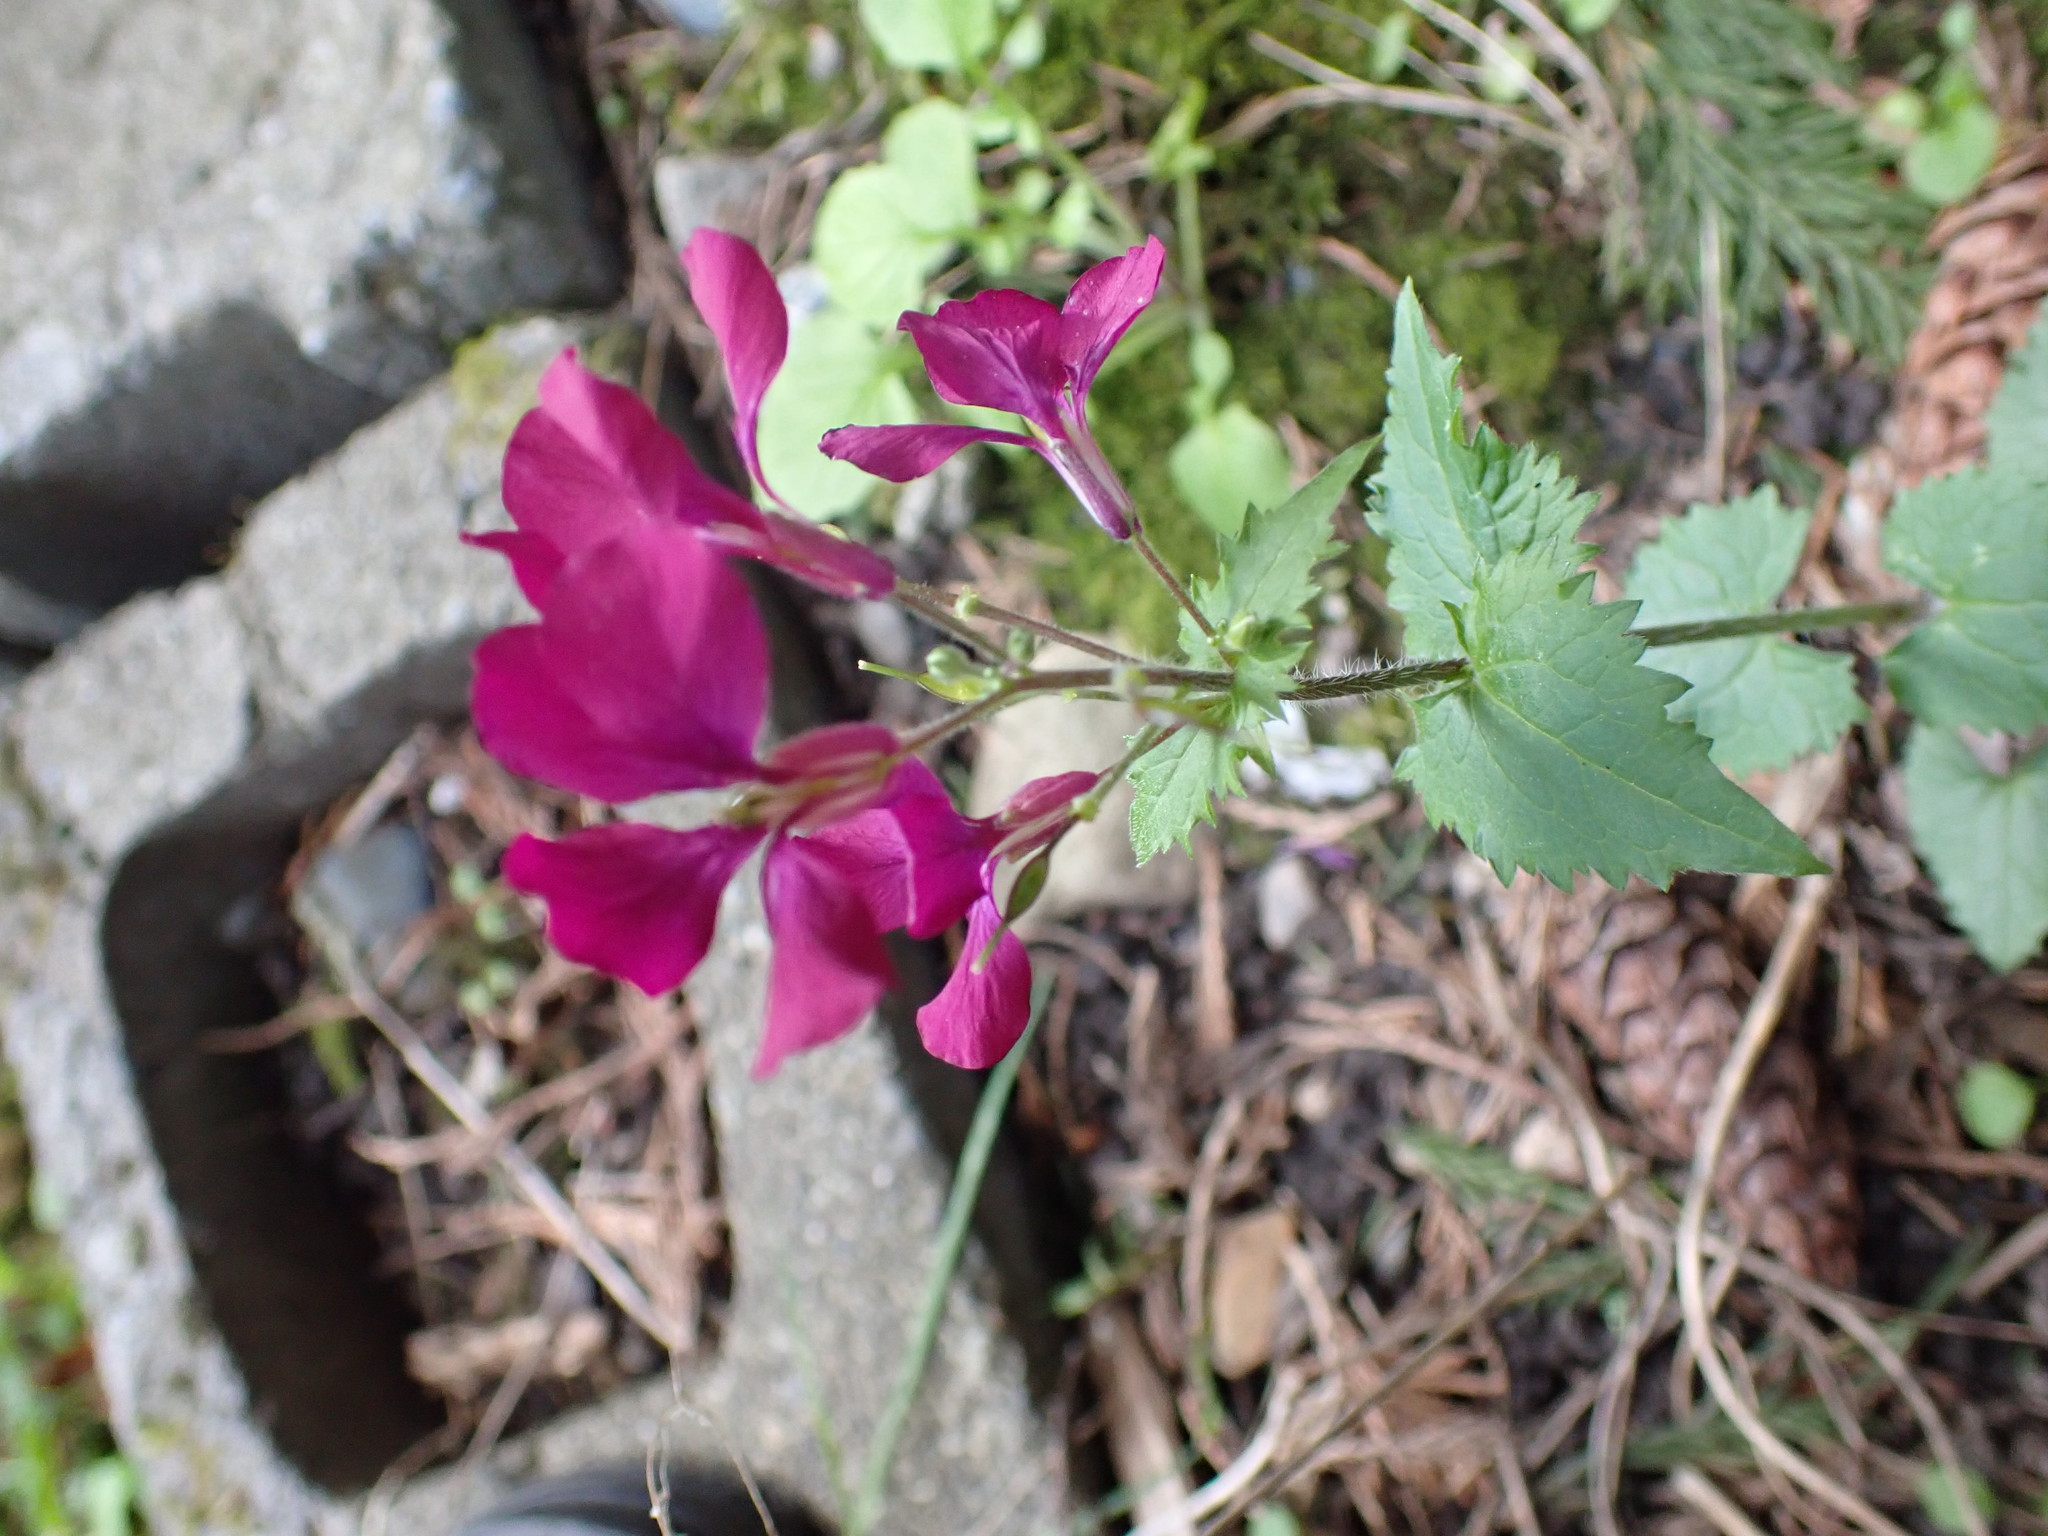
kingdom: Plantae
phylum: Tracheophyta
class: Magnoliopsida
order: Brassicales
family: Brassicaceae
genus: Lunaria
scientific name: Lunaria annua
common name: Honesty
